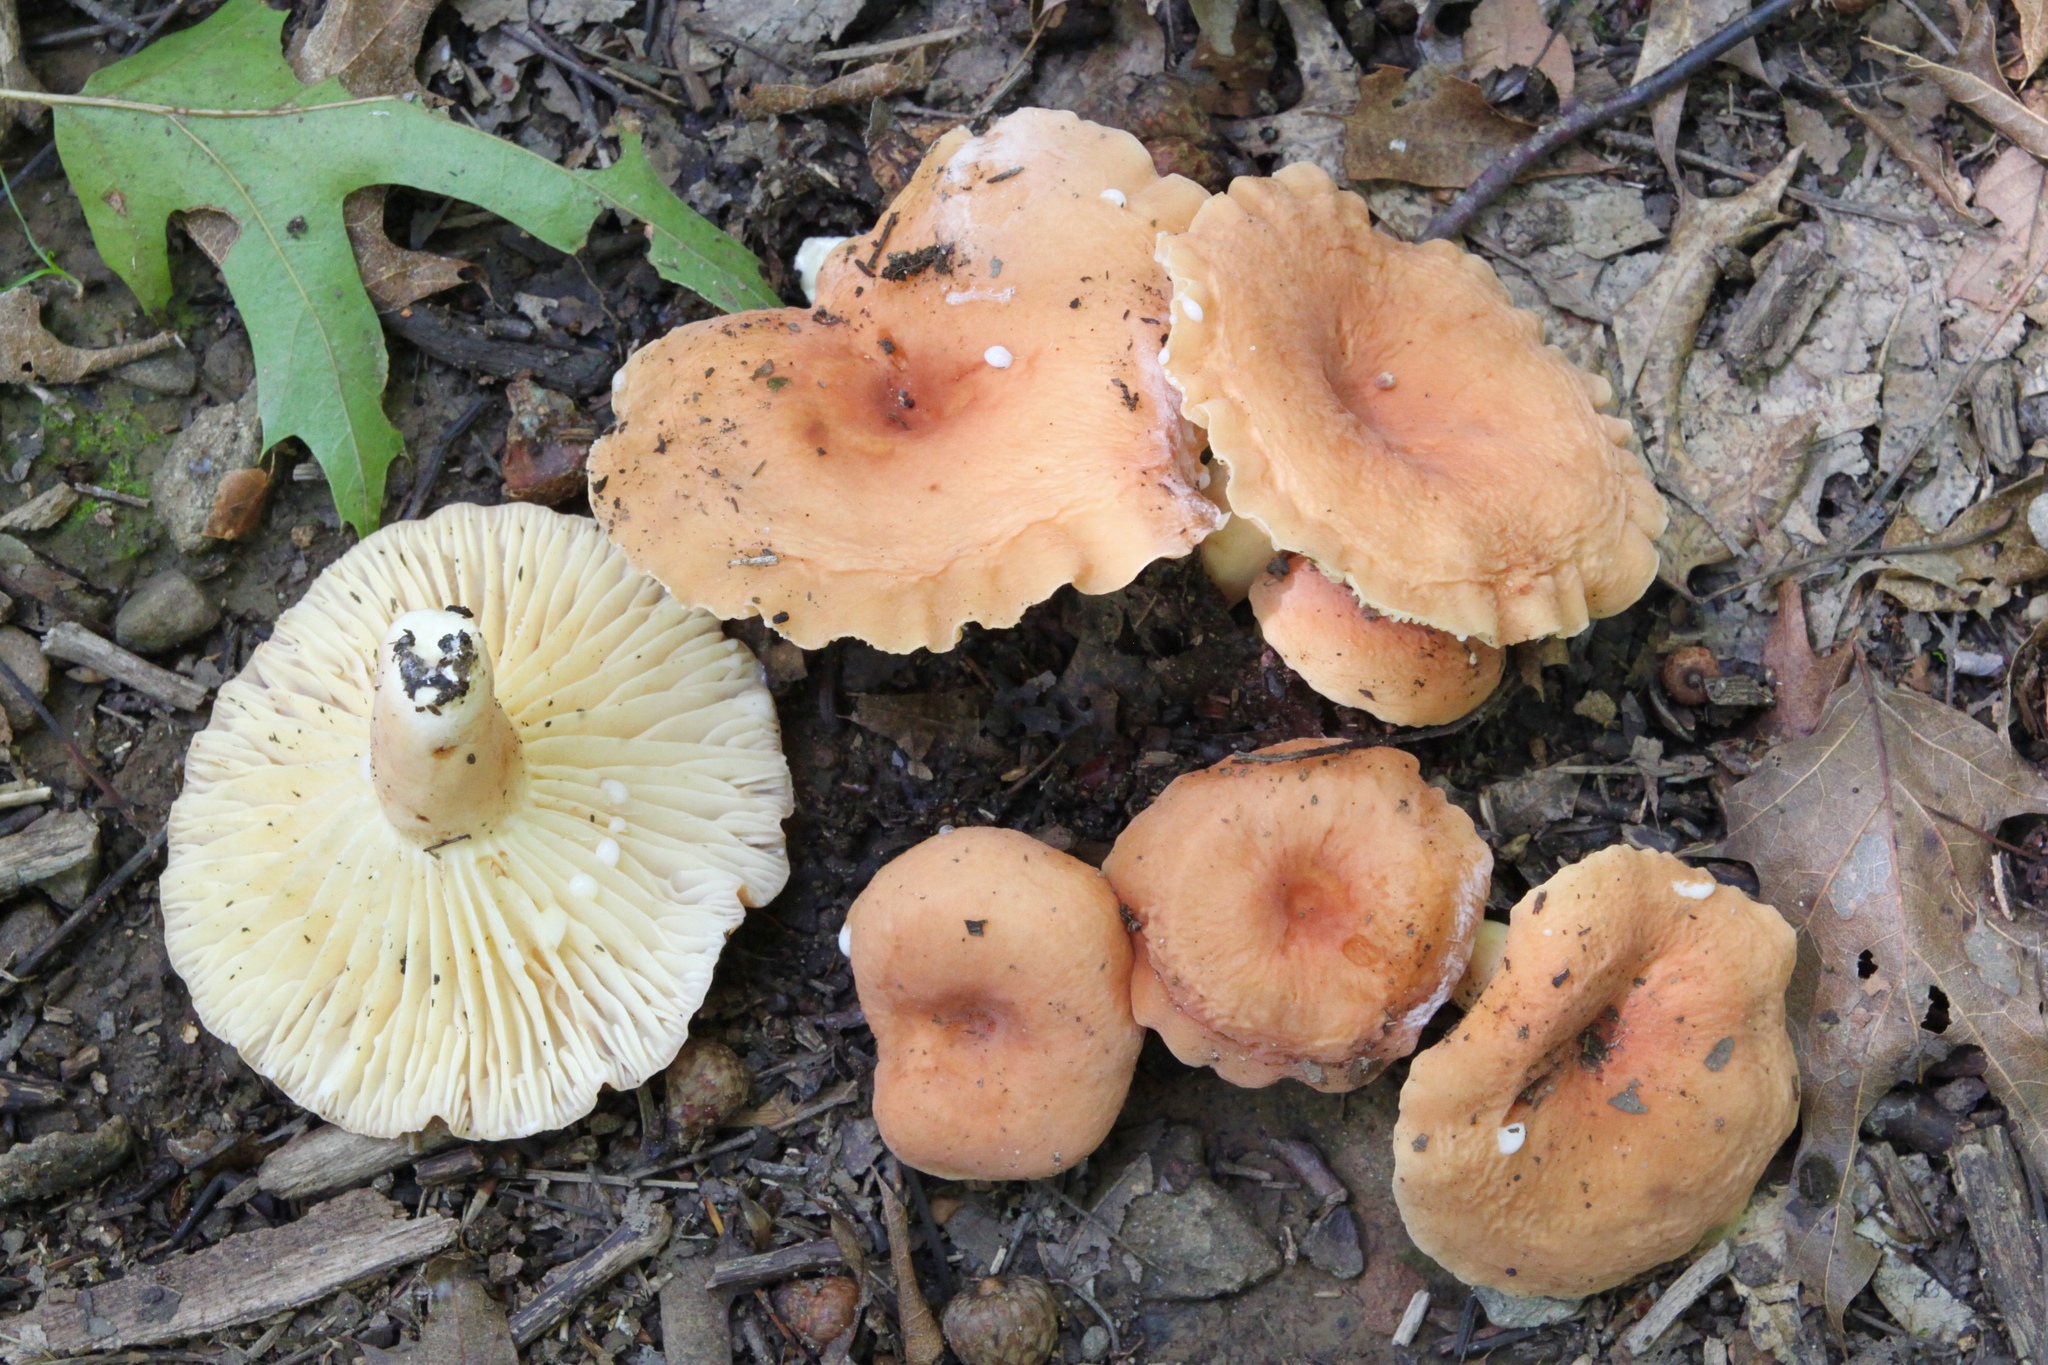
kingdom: Fungi
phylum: Basidiomycota
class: Agaricomycetes
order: Russulales
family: Russulaceae
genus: Lactarius
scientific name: Lactarius hygrophoroides
